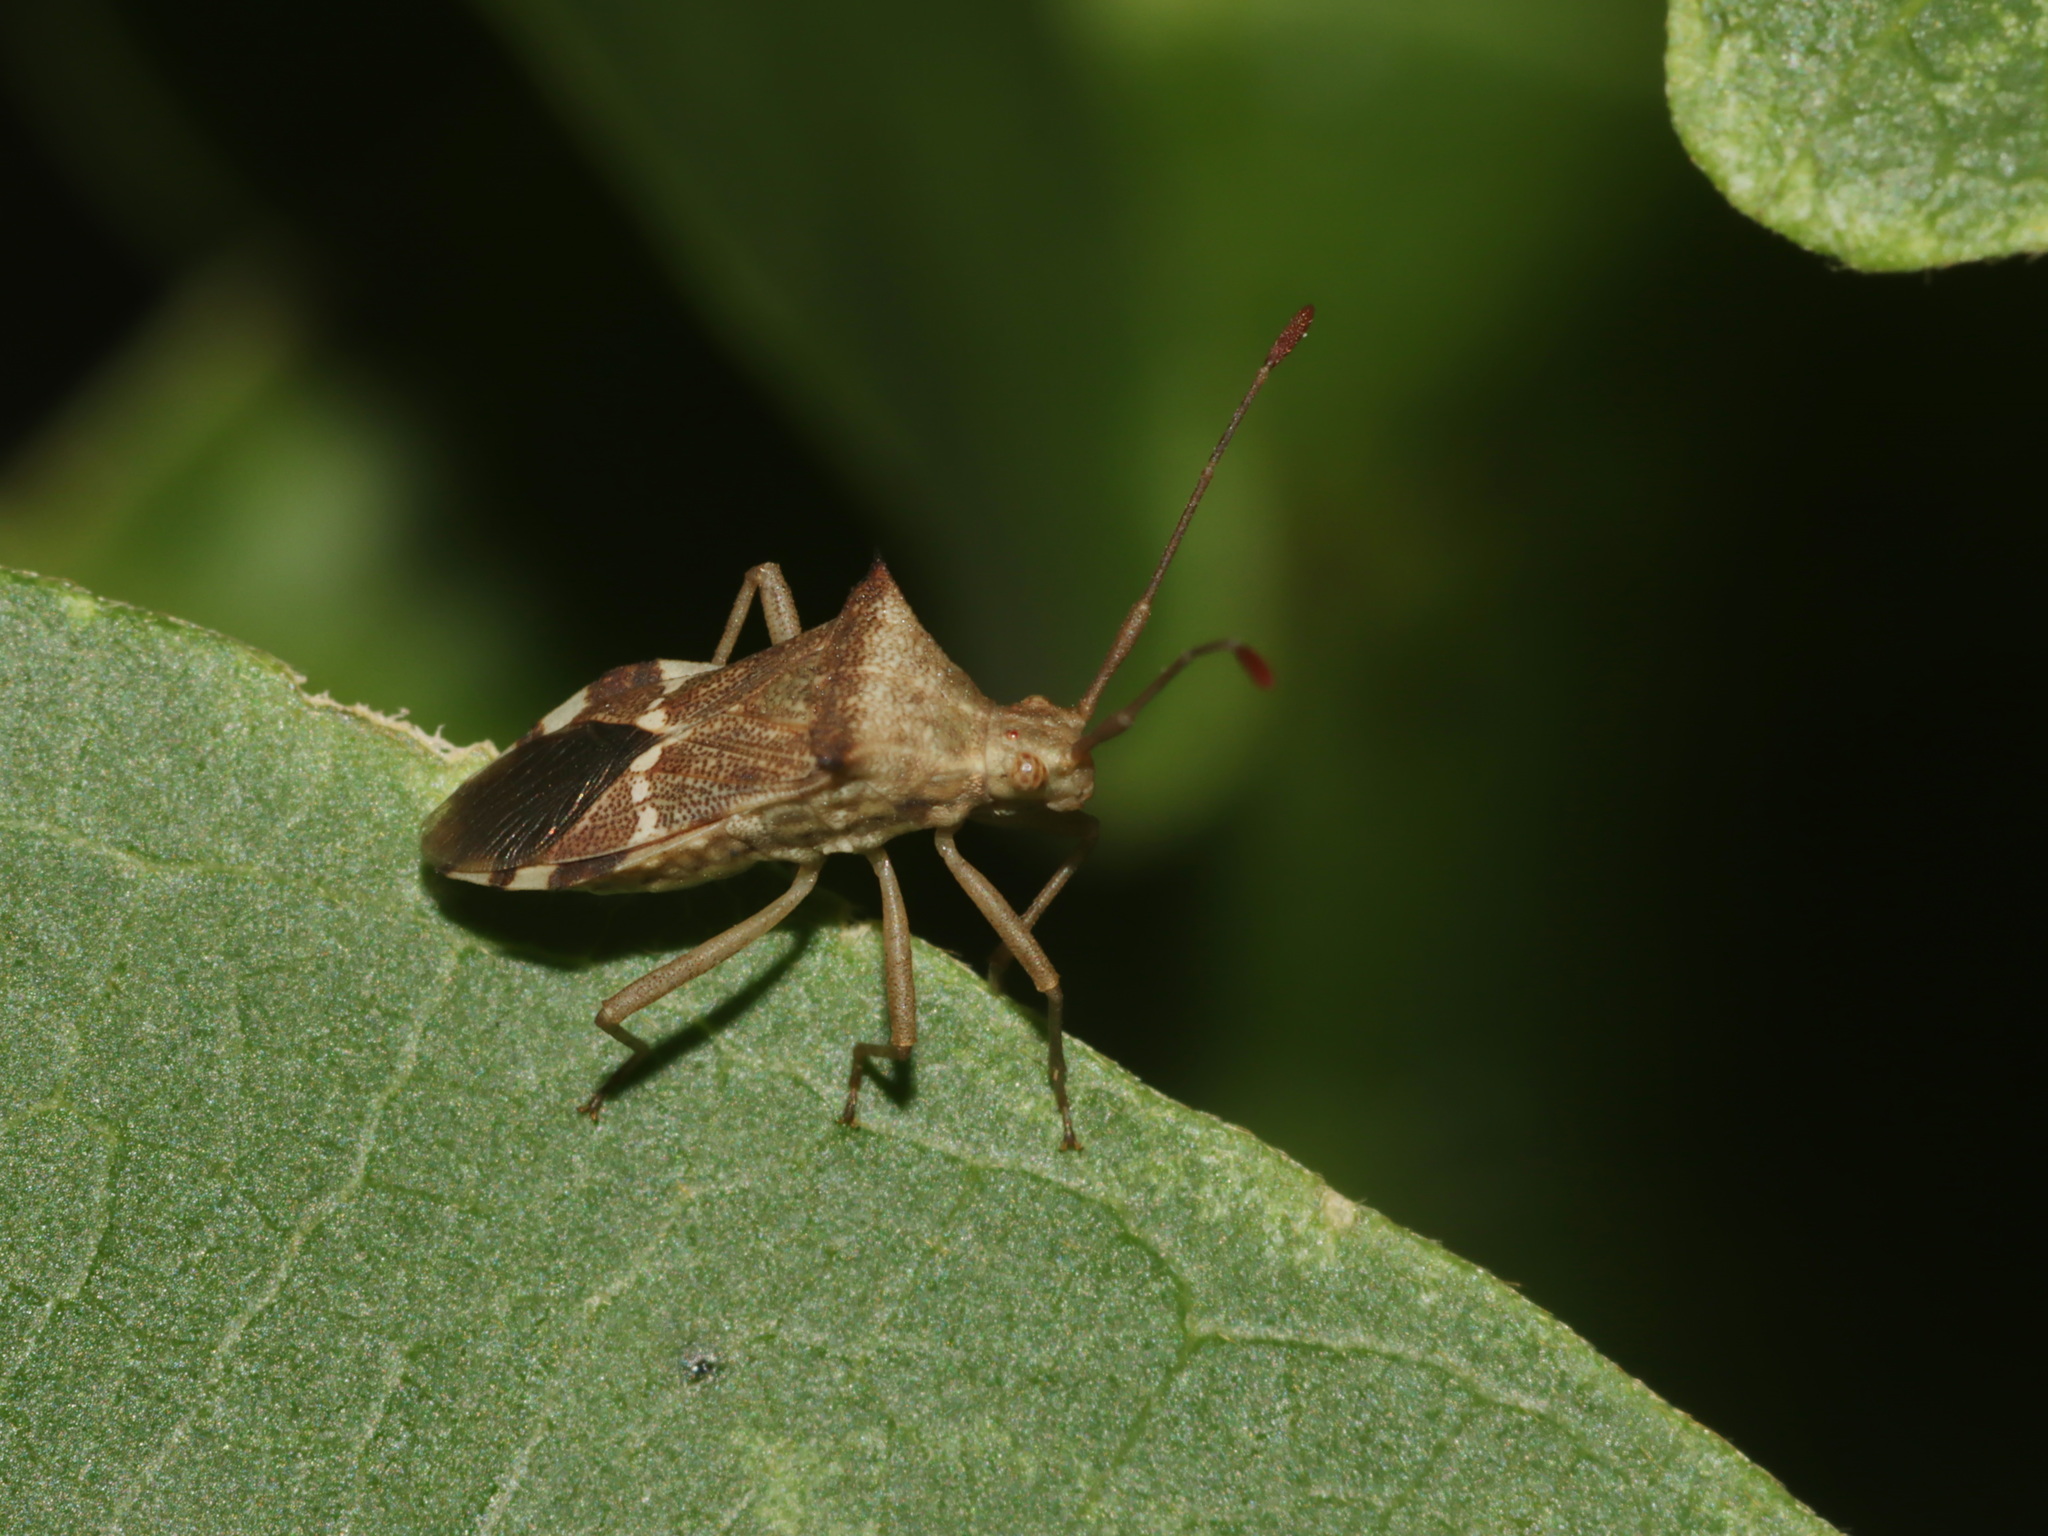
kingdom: Animalia
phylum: Arthropoda
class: Insecta
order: Hemiptera
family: Coreidae
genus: Cletomorpha
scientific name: Cletomorpha benita
